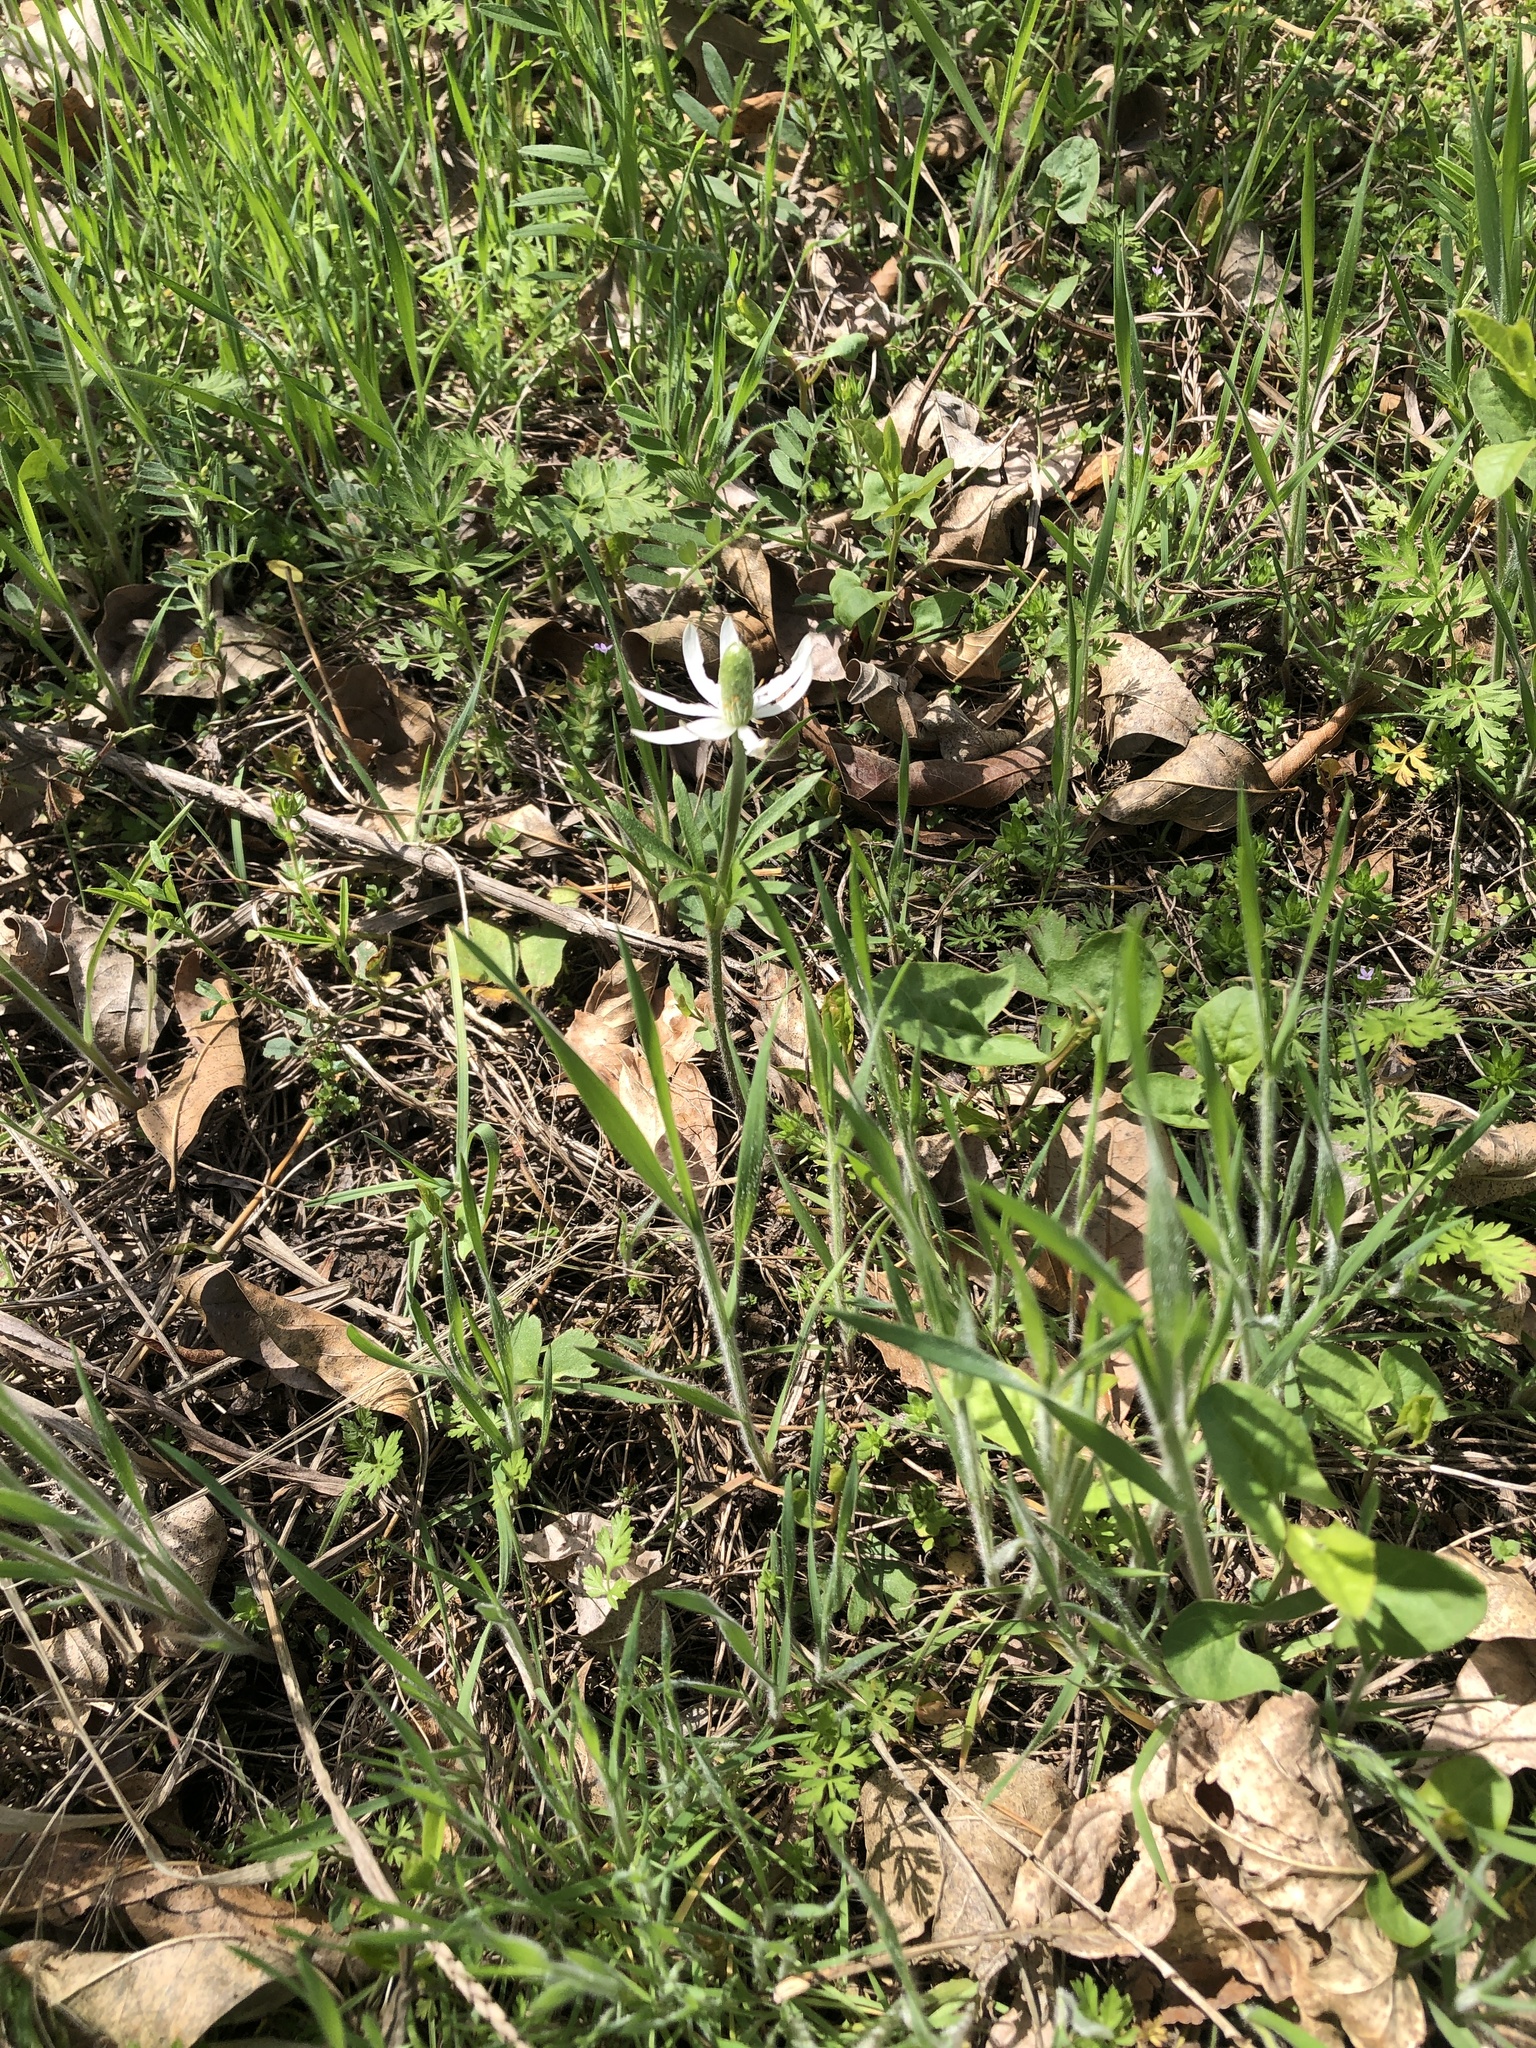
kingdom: Plantae
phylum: Tracheophyta
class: Magnoliopsida
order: Ranunculales
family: Ranunculaceae
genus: Anemone
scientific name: Anemone berlandieri
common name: Ten-petal anemone
